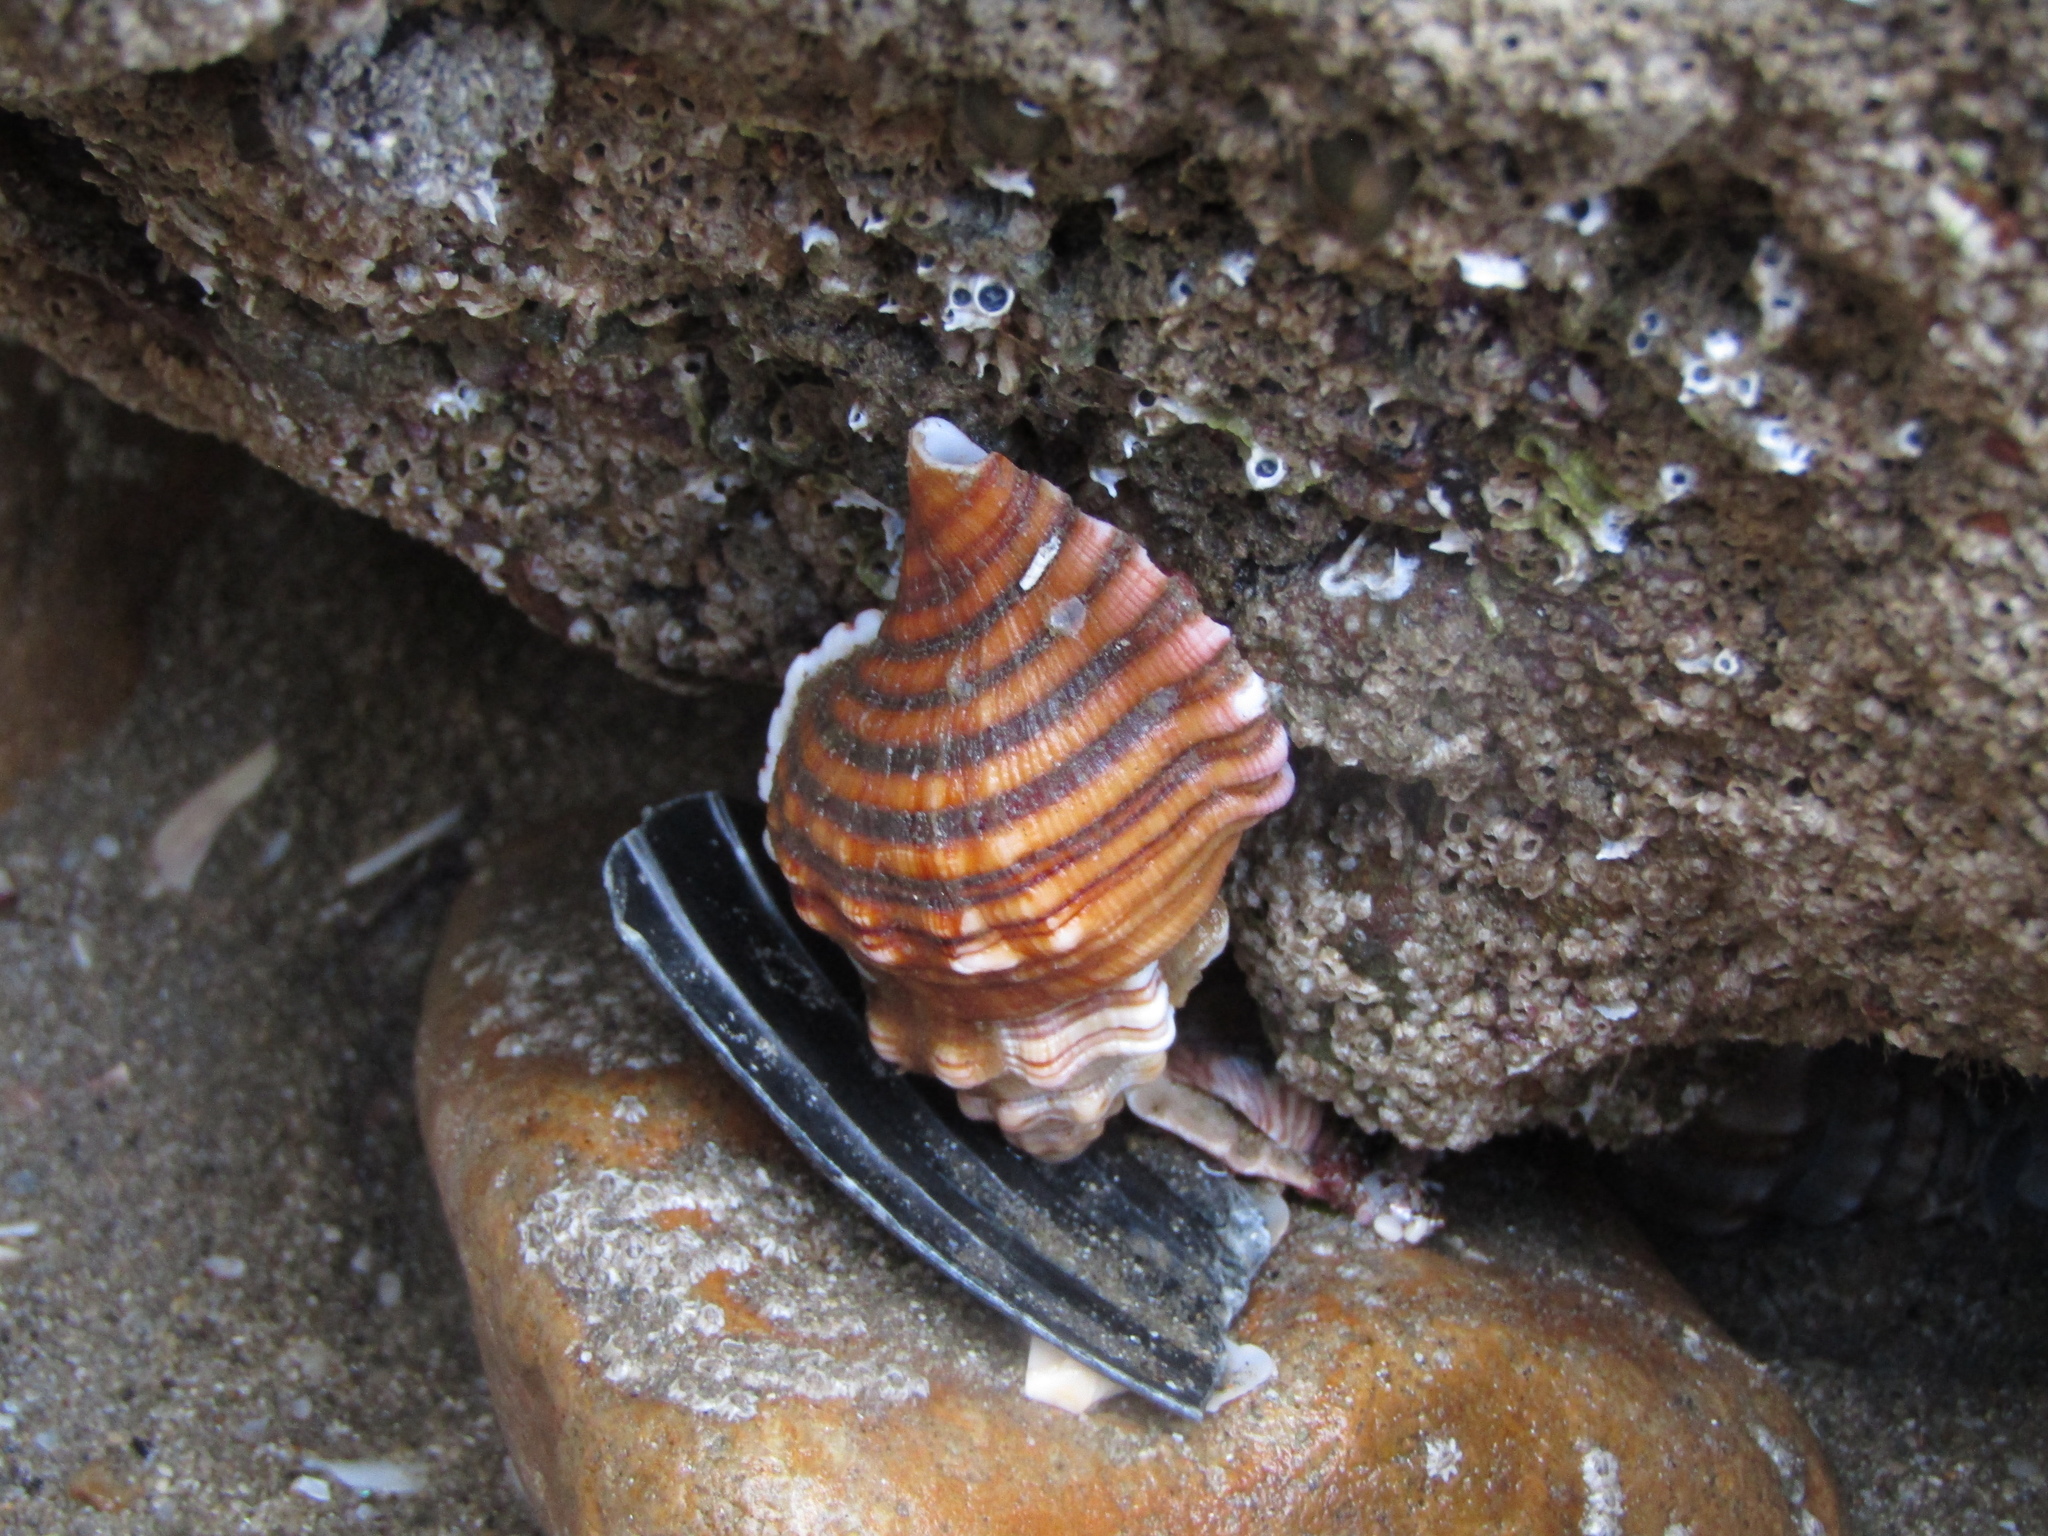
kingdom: Animalia
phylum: Mollusca
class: Gastropoda
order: Littorinimorpha
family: Cymatiidae
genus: Cabestana
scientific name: Cabestana spengleri
